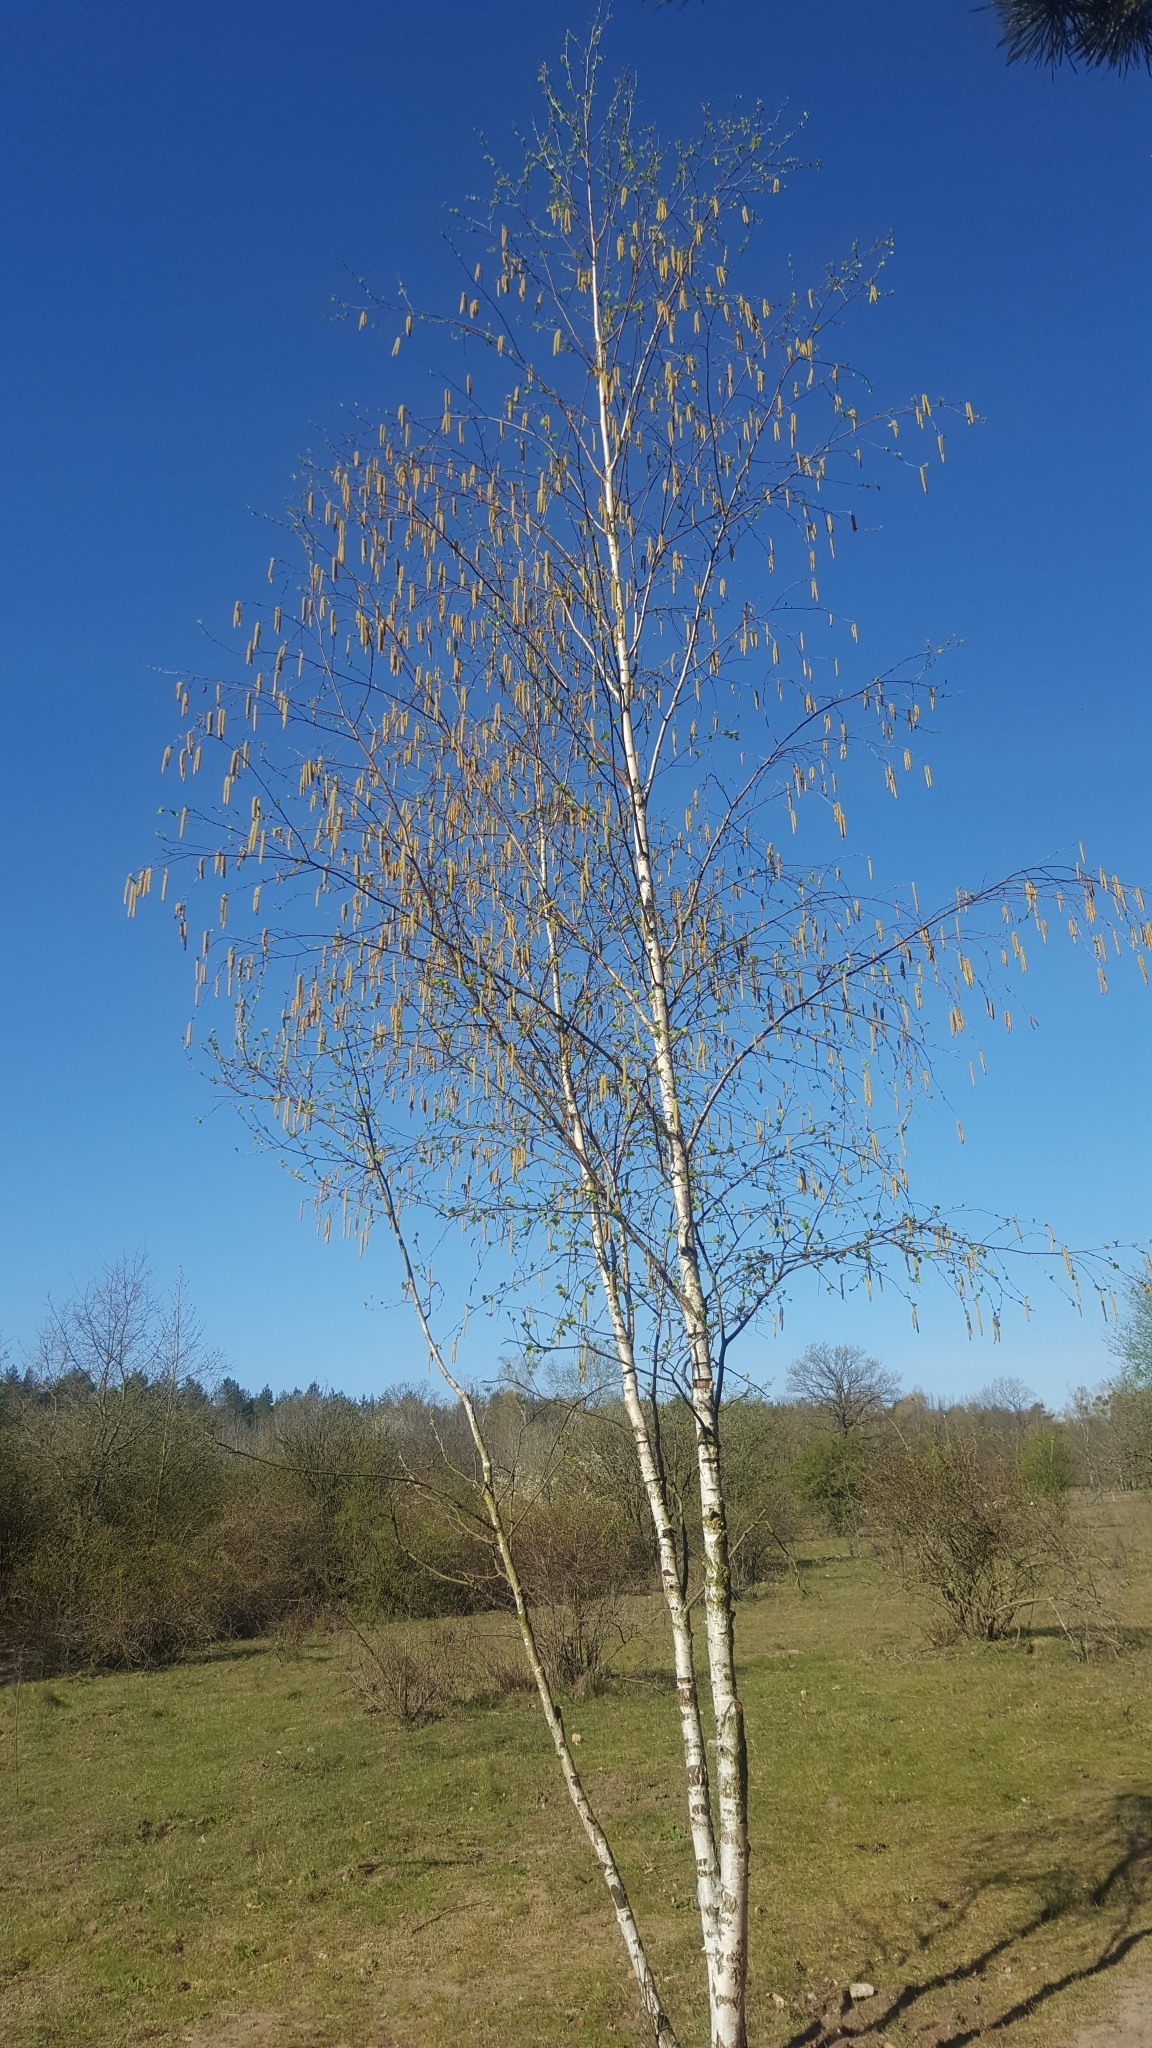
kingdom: Plantae
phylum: Tracheophyta
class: Magnoliopsida
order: Fagales
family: Betulaceae
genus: Betula
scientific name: Betula pendula
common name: Silver birch
